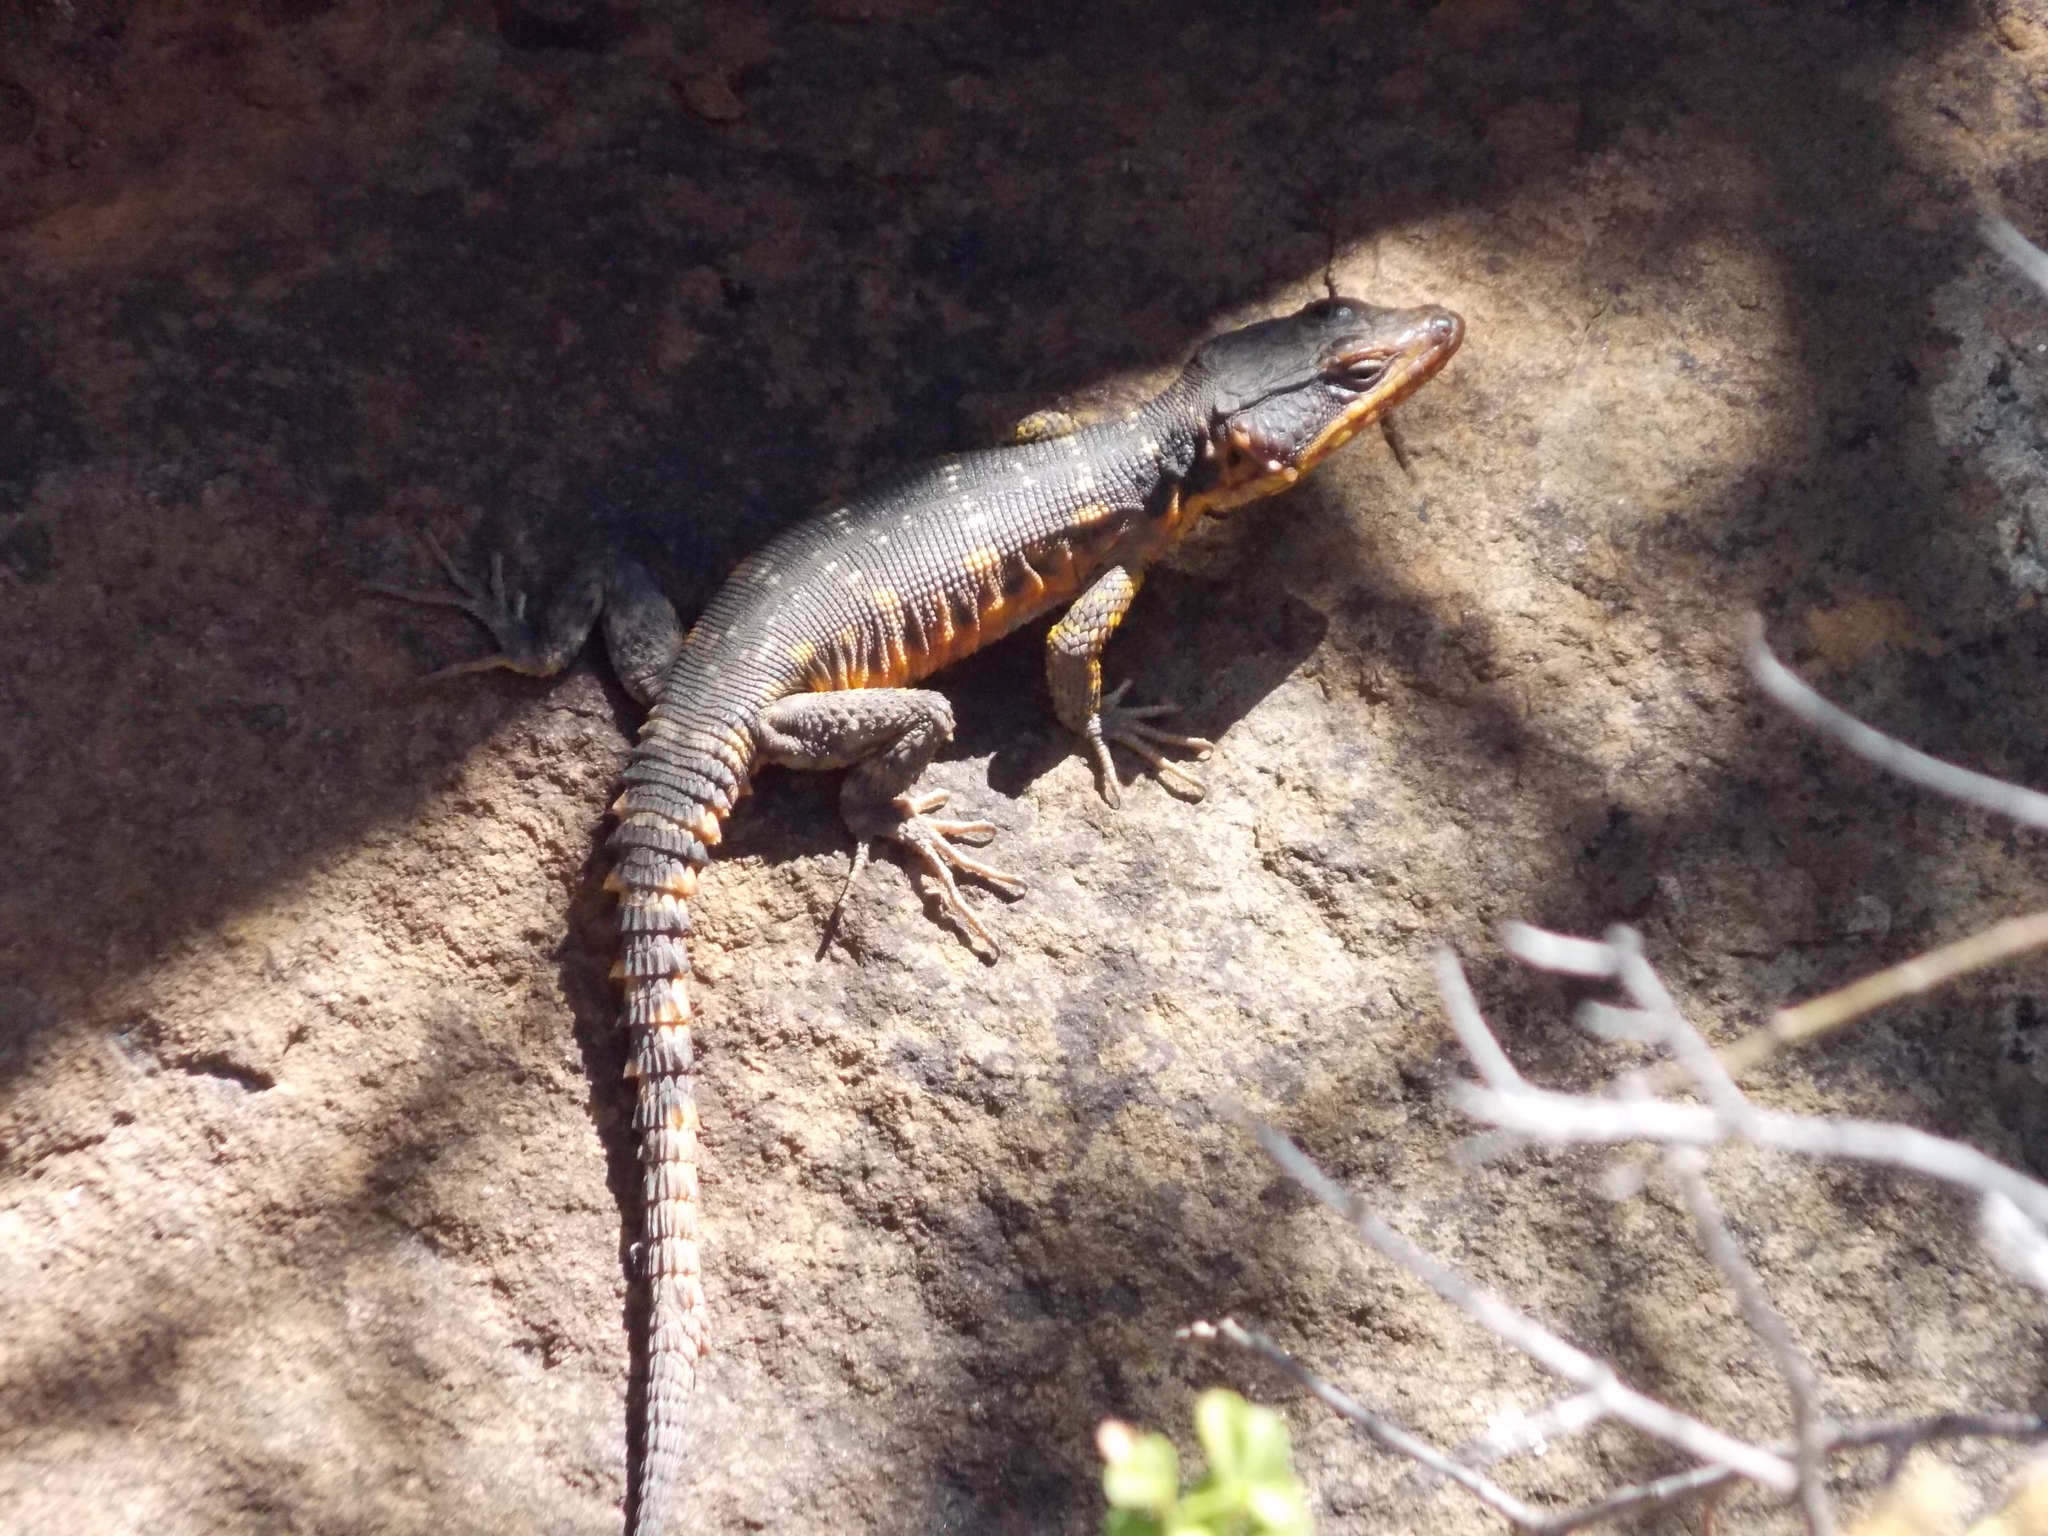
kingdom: Animalia
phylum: Chordata
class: Squamata
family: Cordylidae
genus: Pseudocordylus
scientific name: Pseudocordylus microlepidotus
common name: Cape crag lizard
